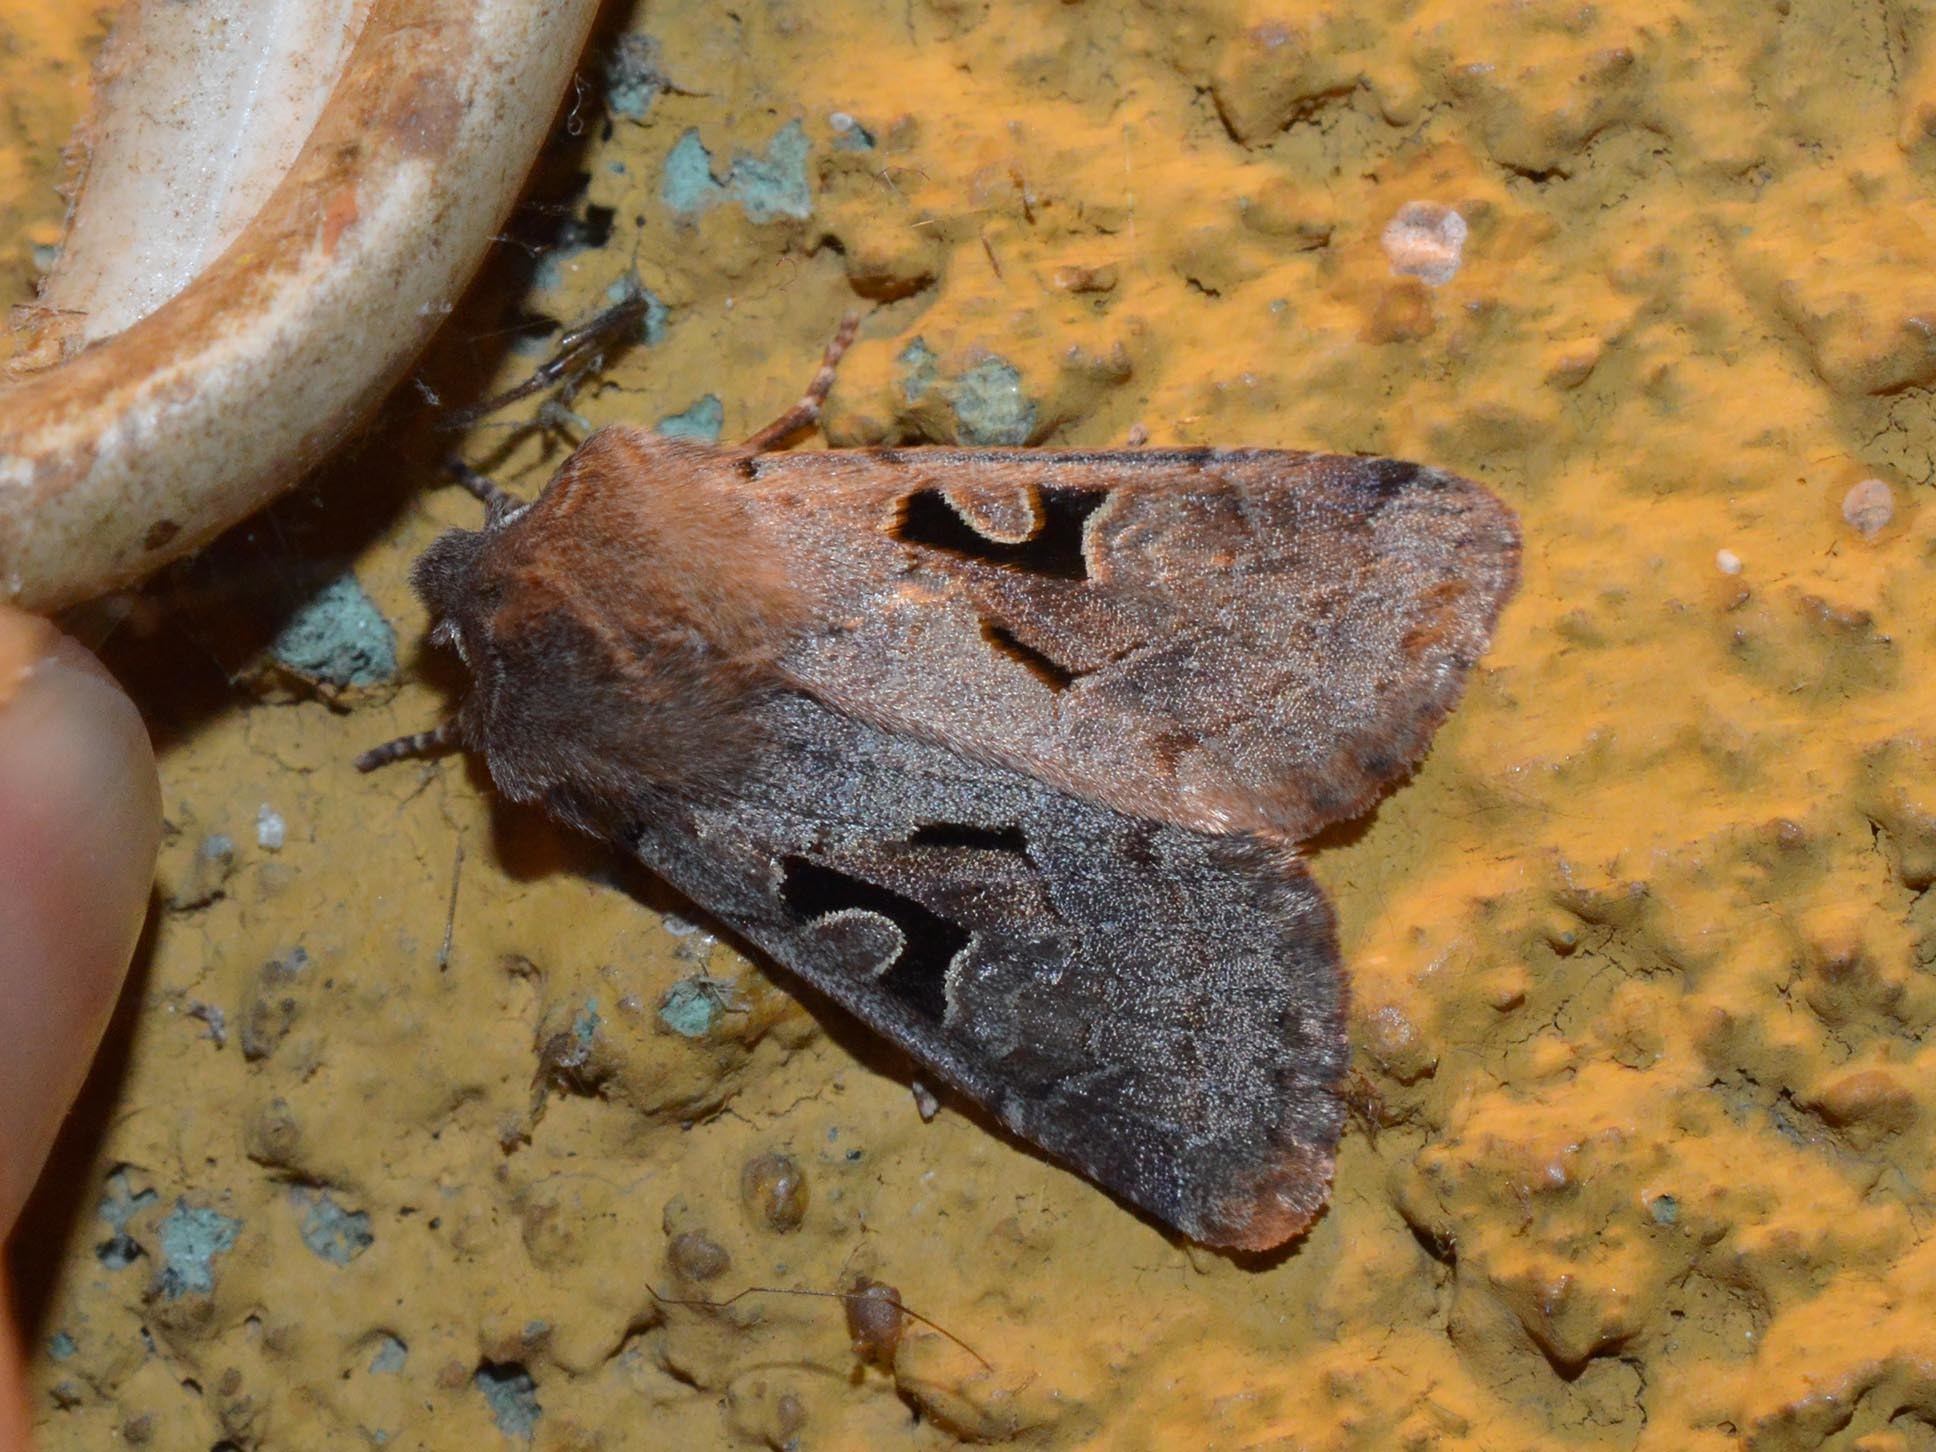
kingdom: Animalia
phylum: Arthropoda
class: Insecta
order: Lepidoptera
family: Noctuidae
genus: Orthosia
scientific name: Orthosia gothica
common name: Hebrew character
